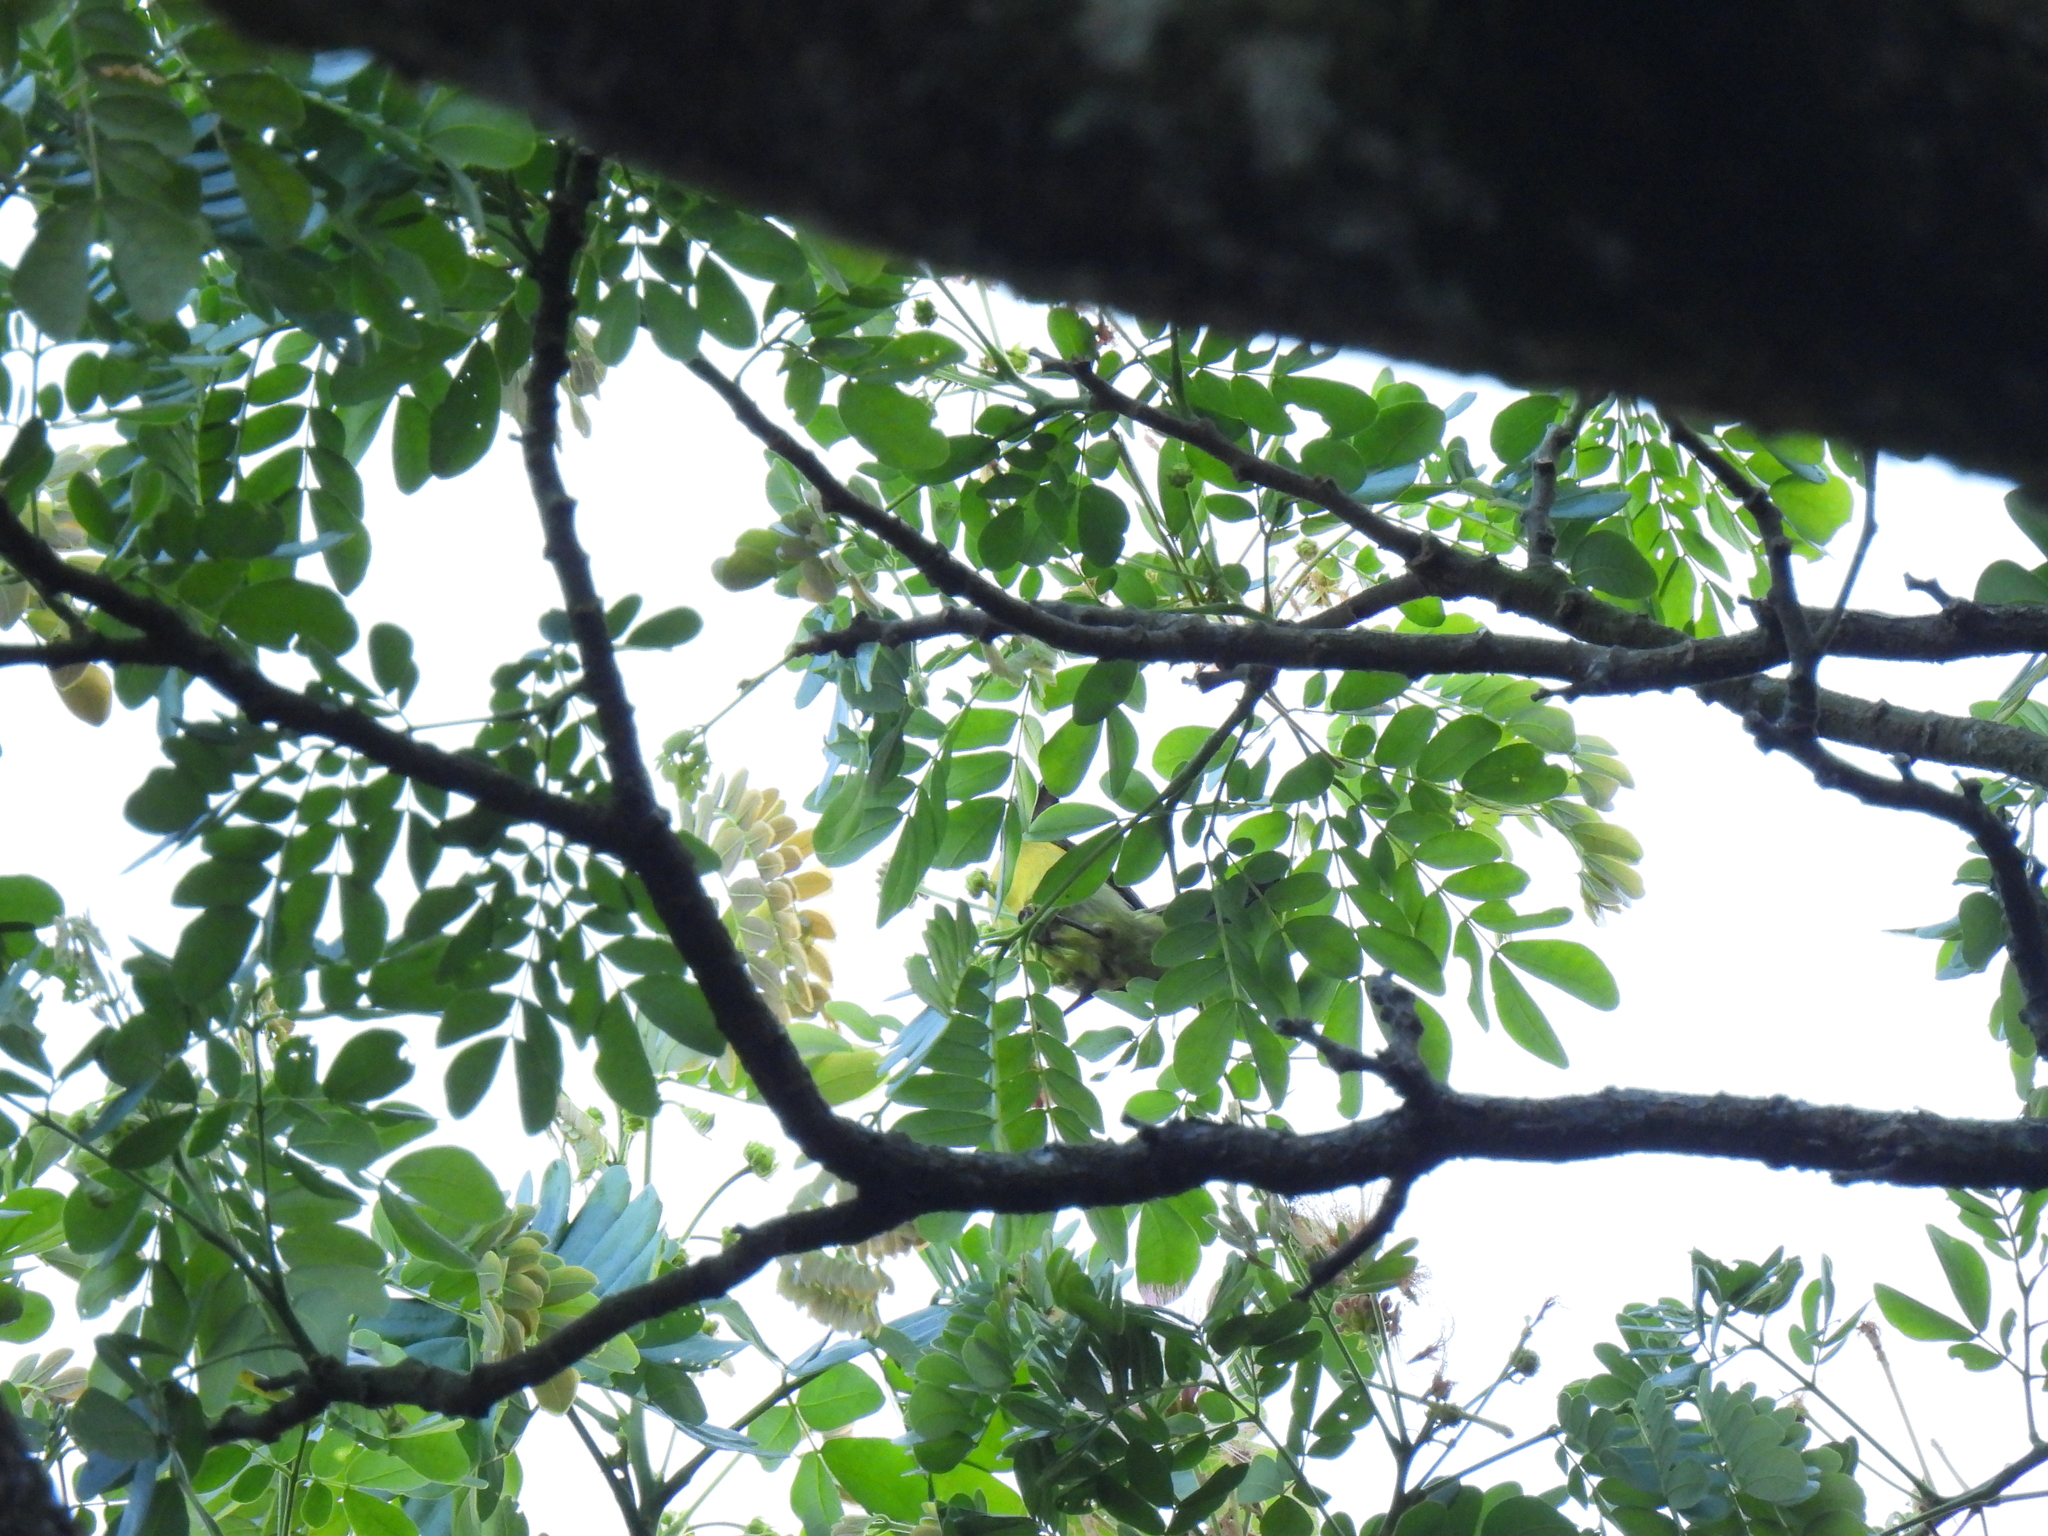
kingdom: Animalia
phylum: Chordata
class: Aves
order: Passeriformes
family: Nectariniidae
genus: Anthreptes
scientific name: Anthreptes malacensis
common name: Brown-throated sunbird
